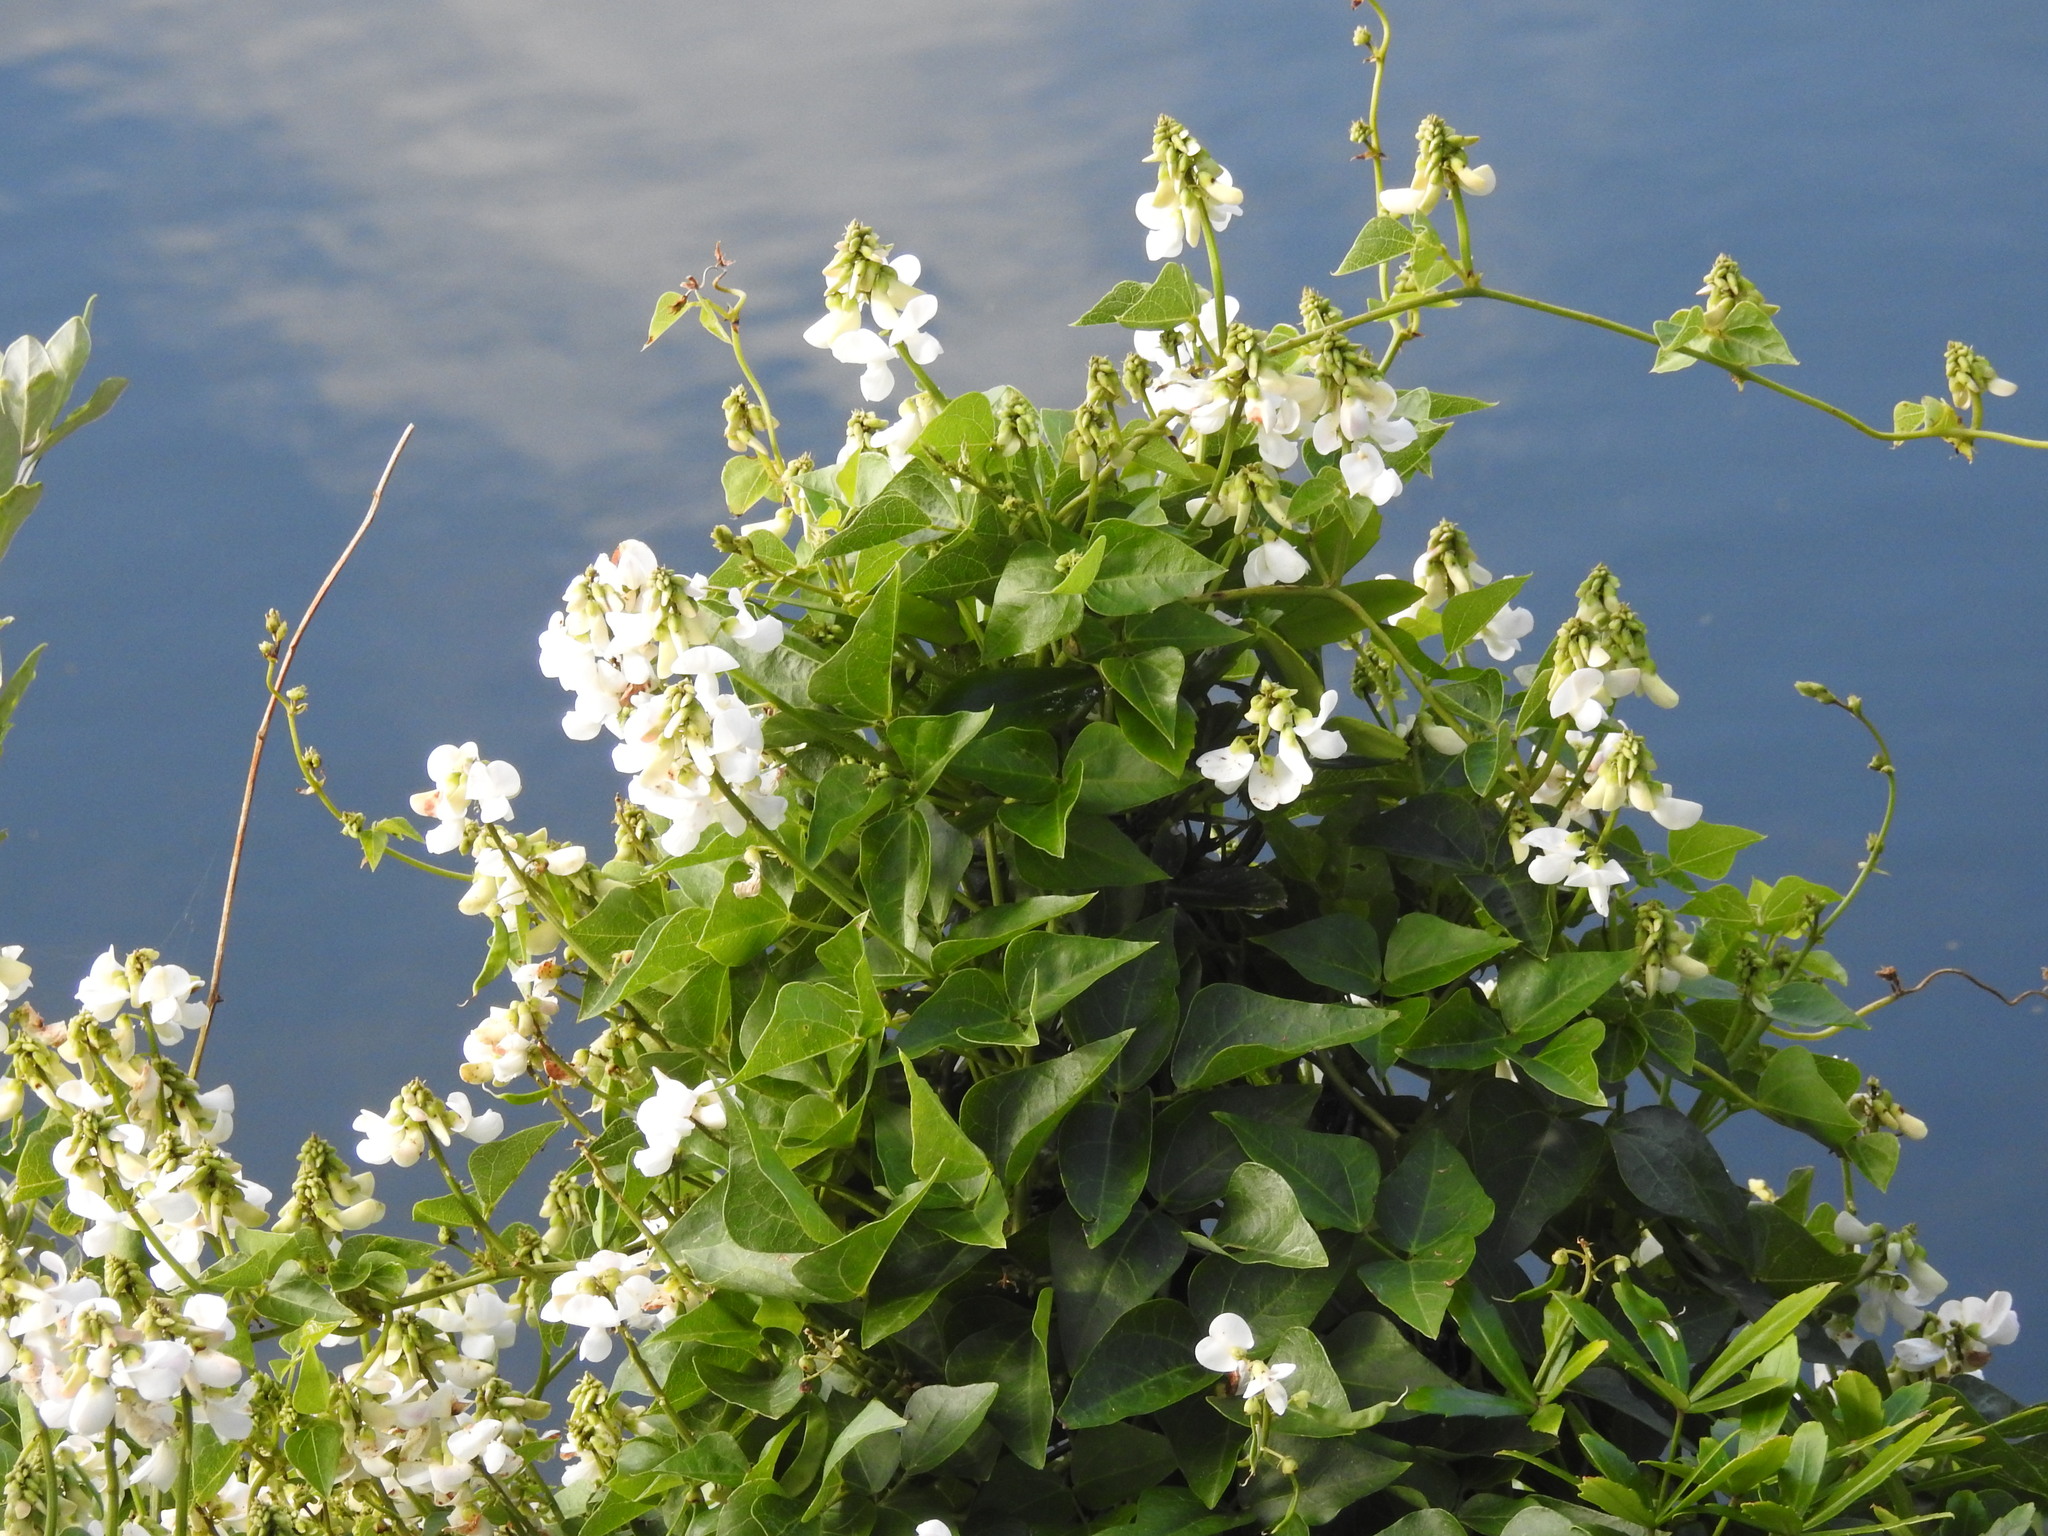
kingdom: Plantae
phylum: Tracheophyta
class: Magnoliopsida
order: Fabales
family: Fabaceae
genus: Dipogon
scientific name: Dipogon lignosus
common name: Okie bean
